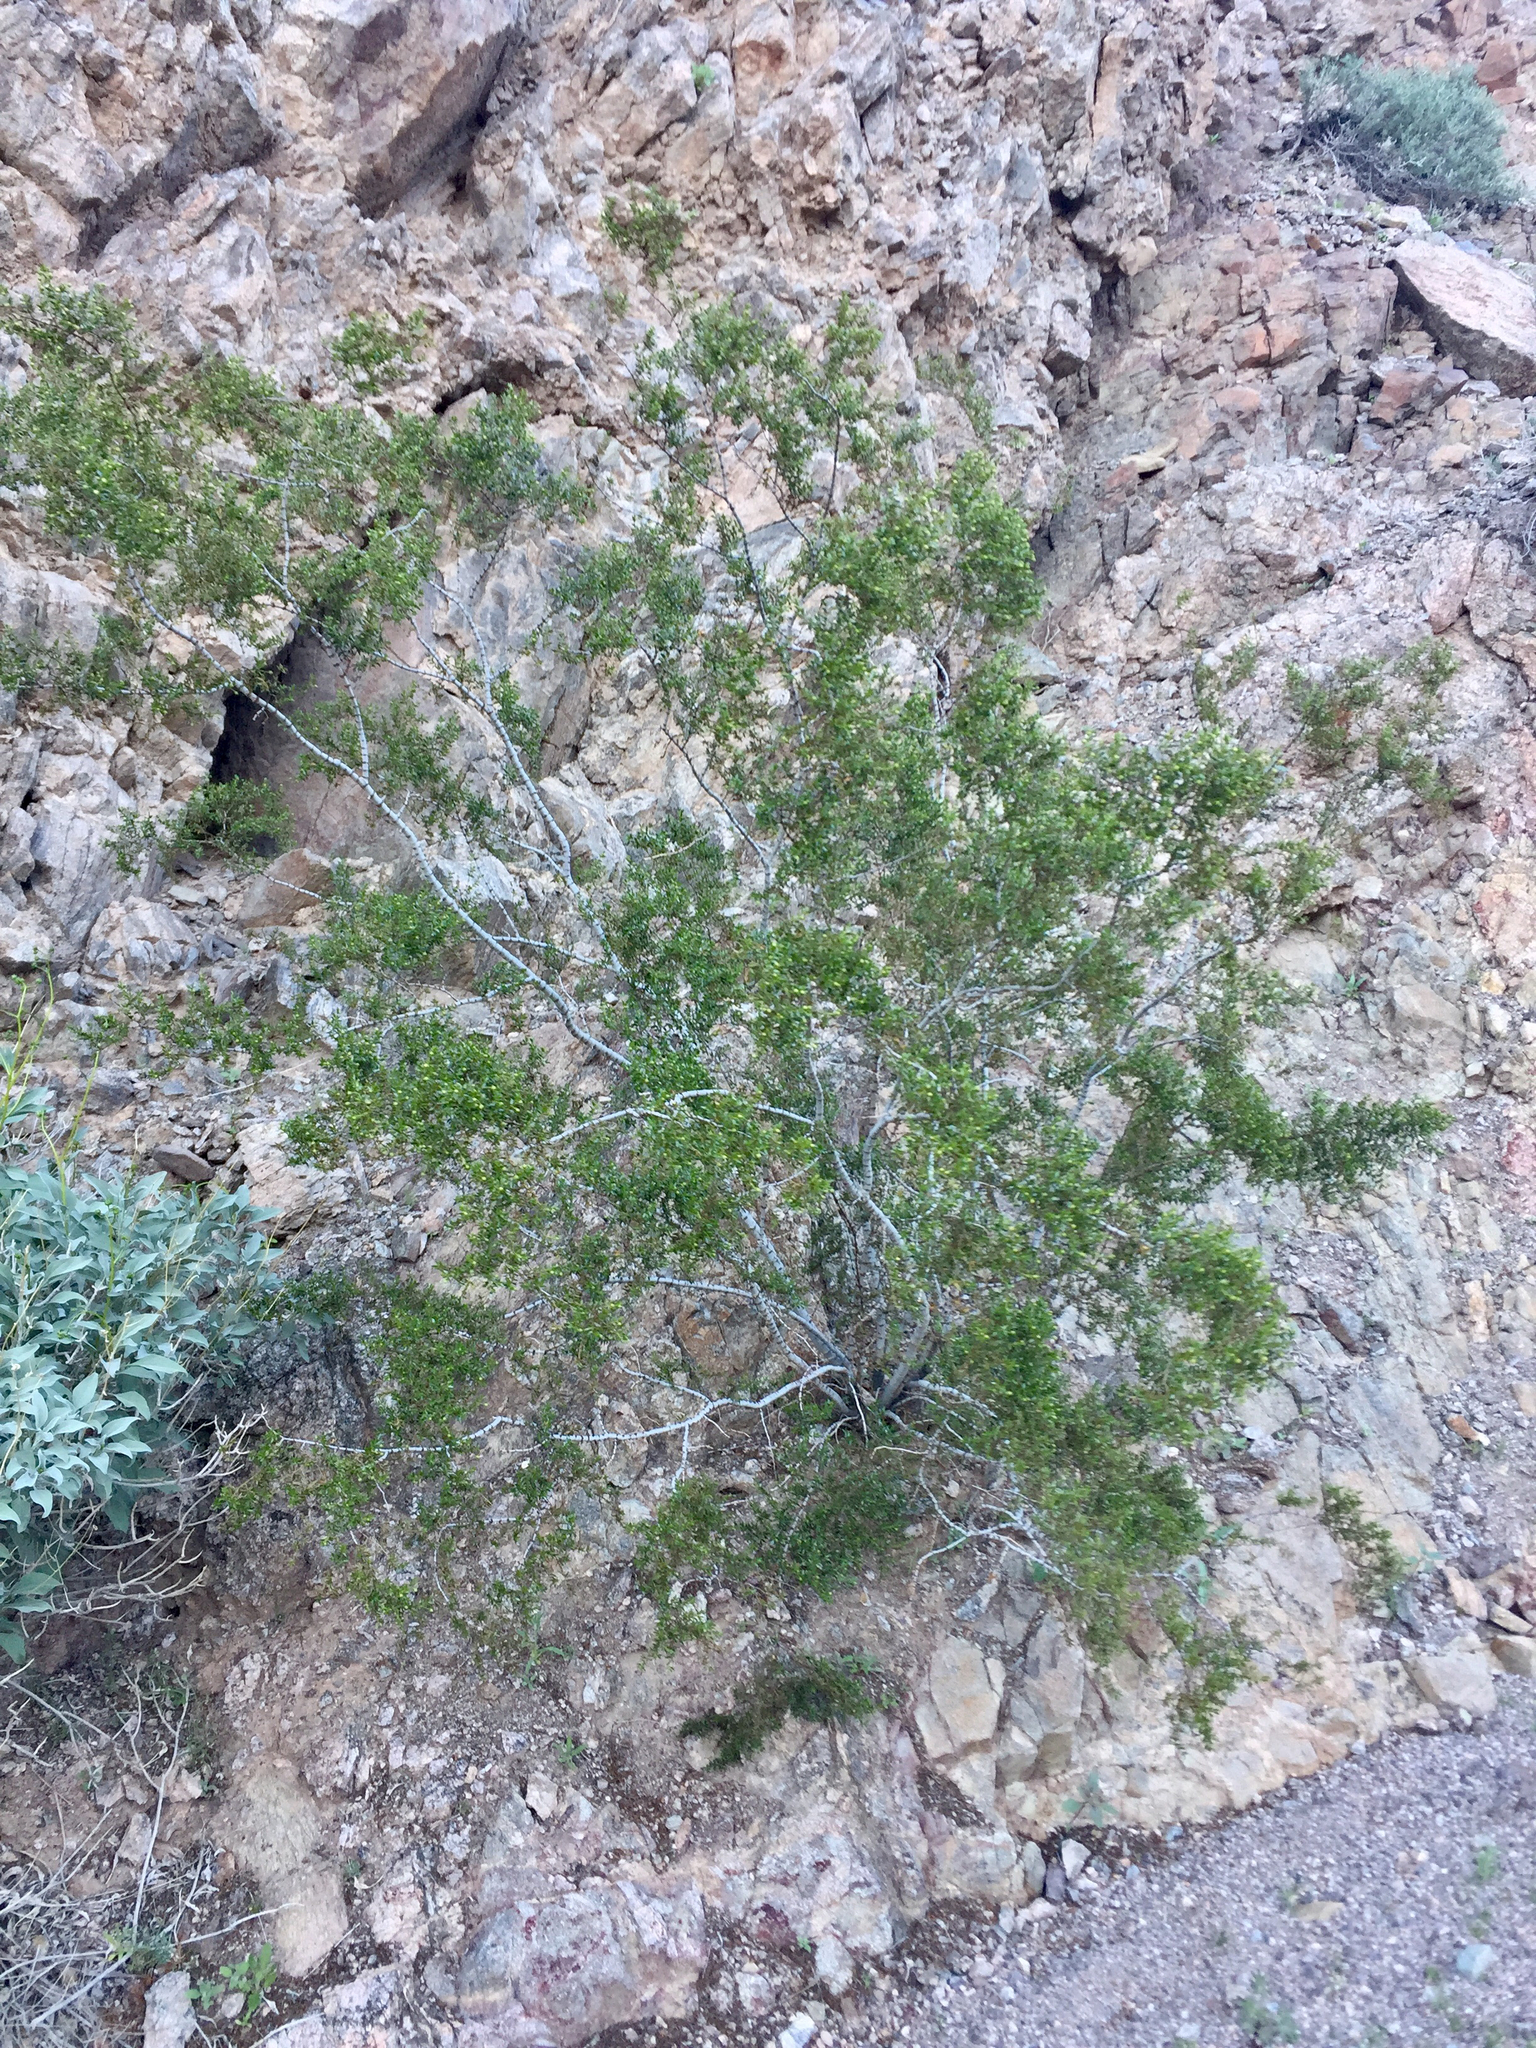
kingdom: Plantae
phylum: Tracheophyta
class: Magnoliopsida
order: Zygophyllales
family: Zygophyllaceae
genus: Larrea
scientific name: Larrea tridentata
